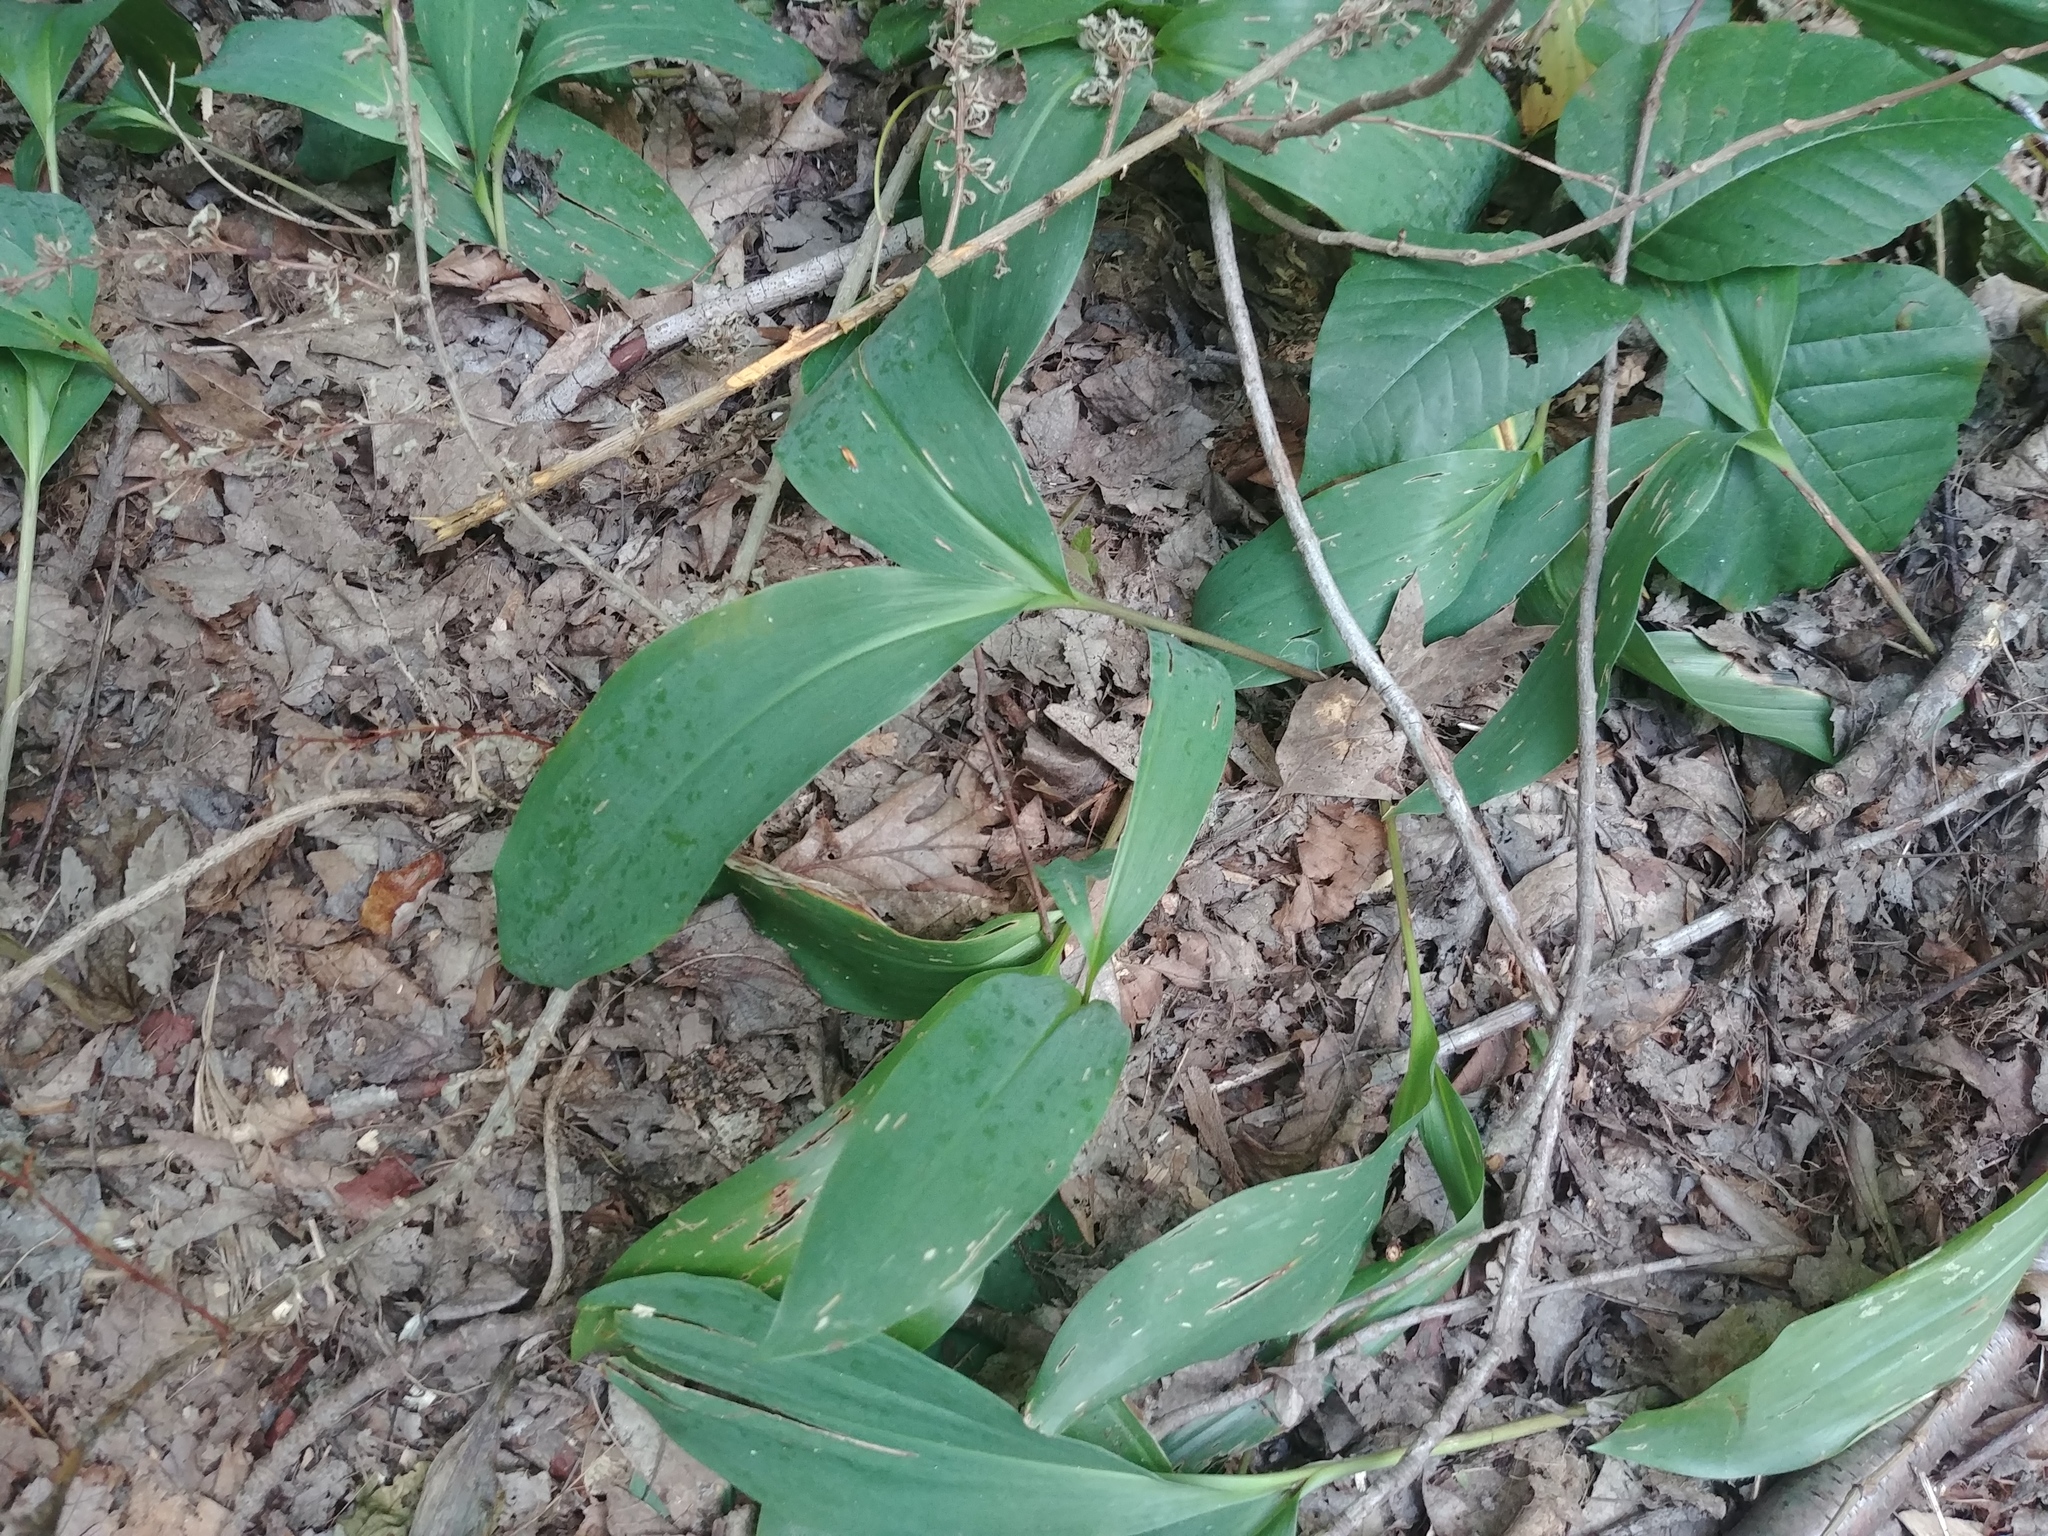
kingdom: Plantae
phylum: Tracheophyta
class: Liliopsida
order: Asparagales
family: Asparagaceae
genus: Convallaria
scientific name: Convallaria majalis
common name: Lily-of-the-valley
